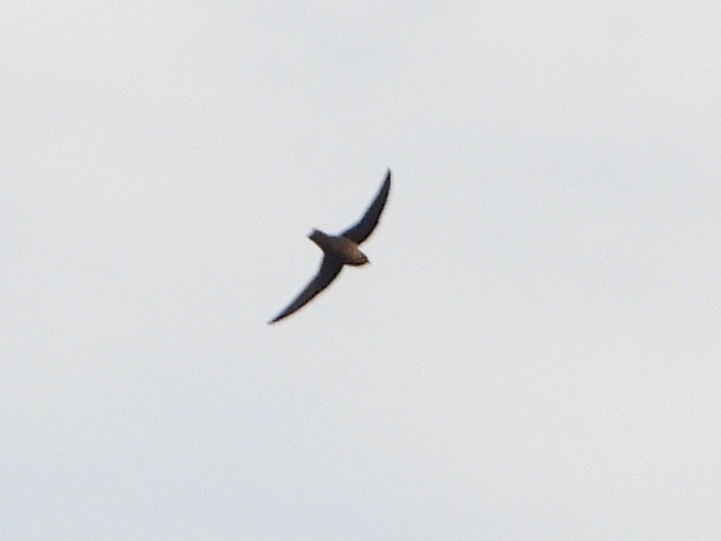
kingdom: Animalia
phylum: Chordata
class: Aves
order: Apodiformes
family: Apodidae
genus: Chaetura
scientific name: Chaetura vauxi
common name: Vaux's swift
